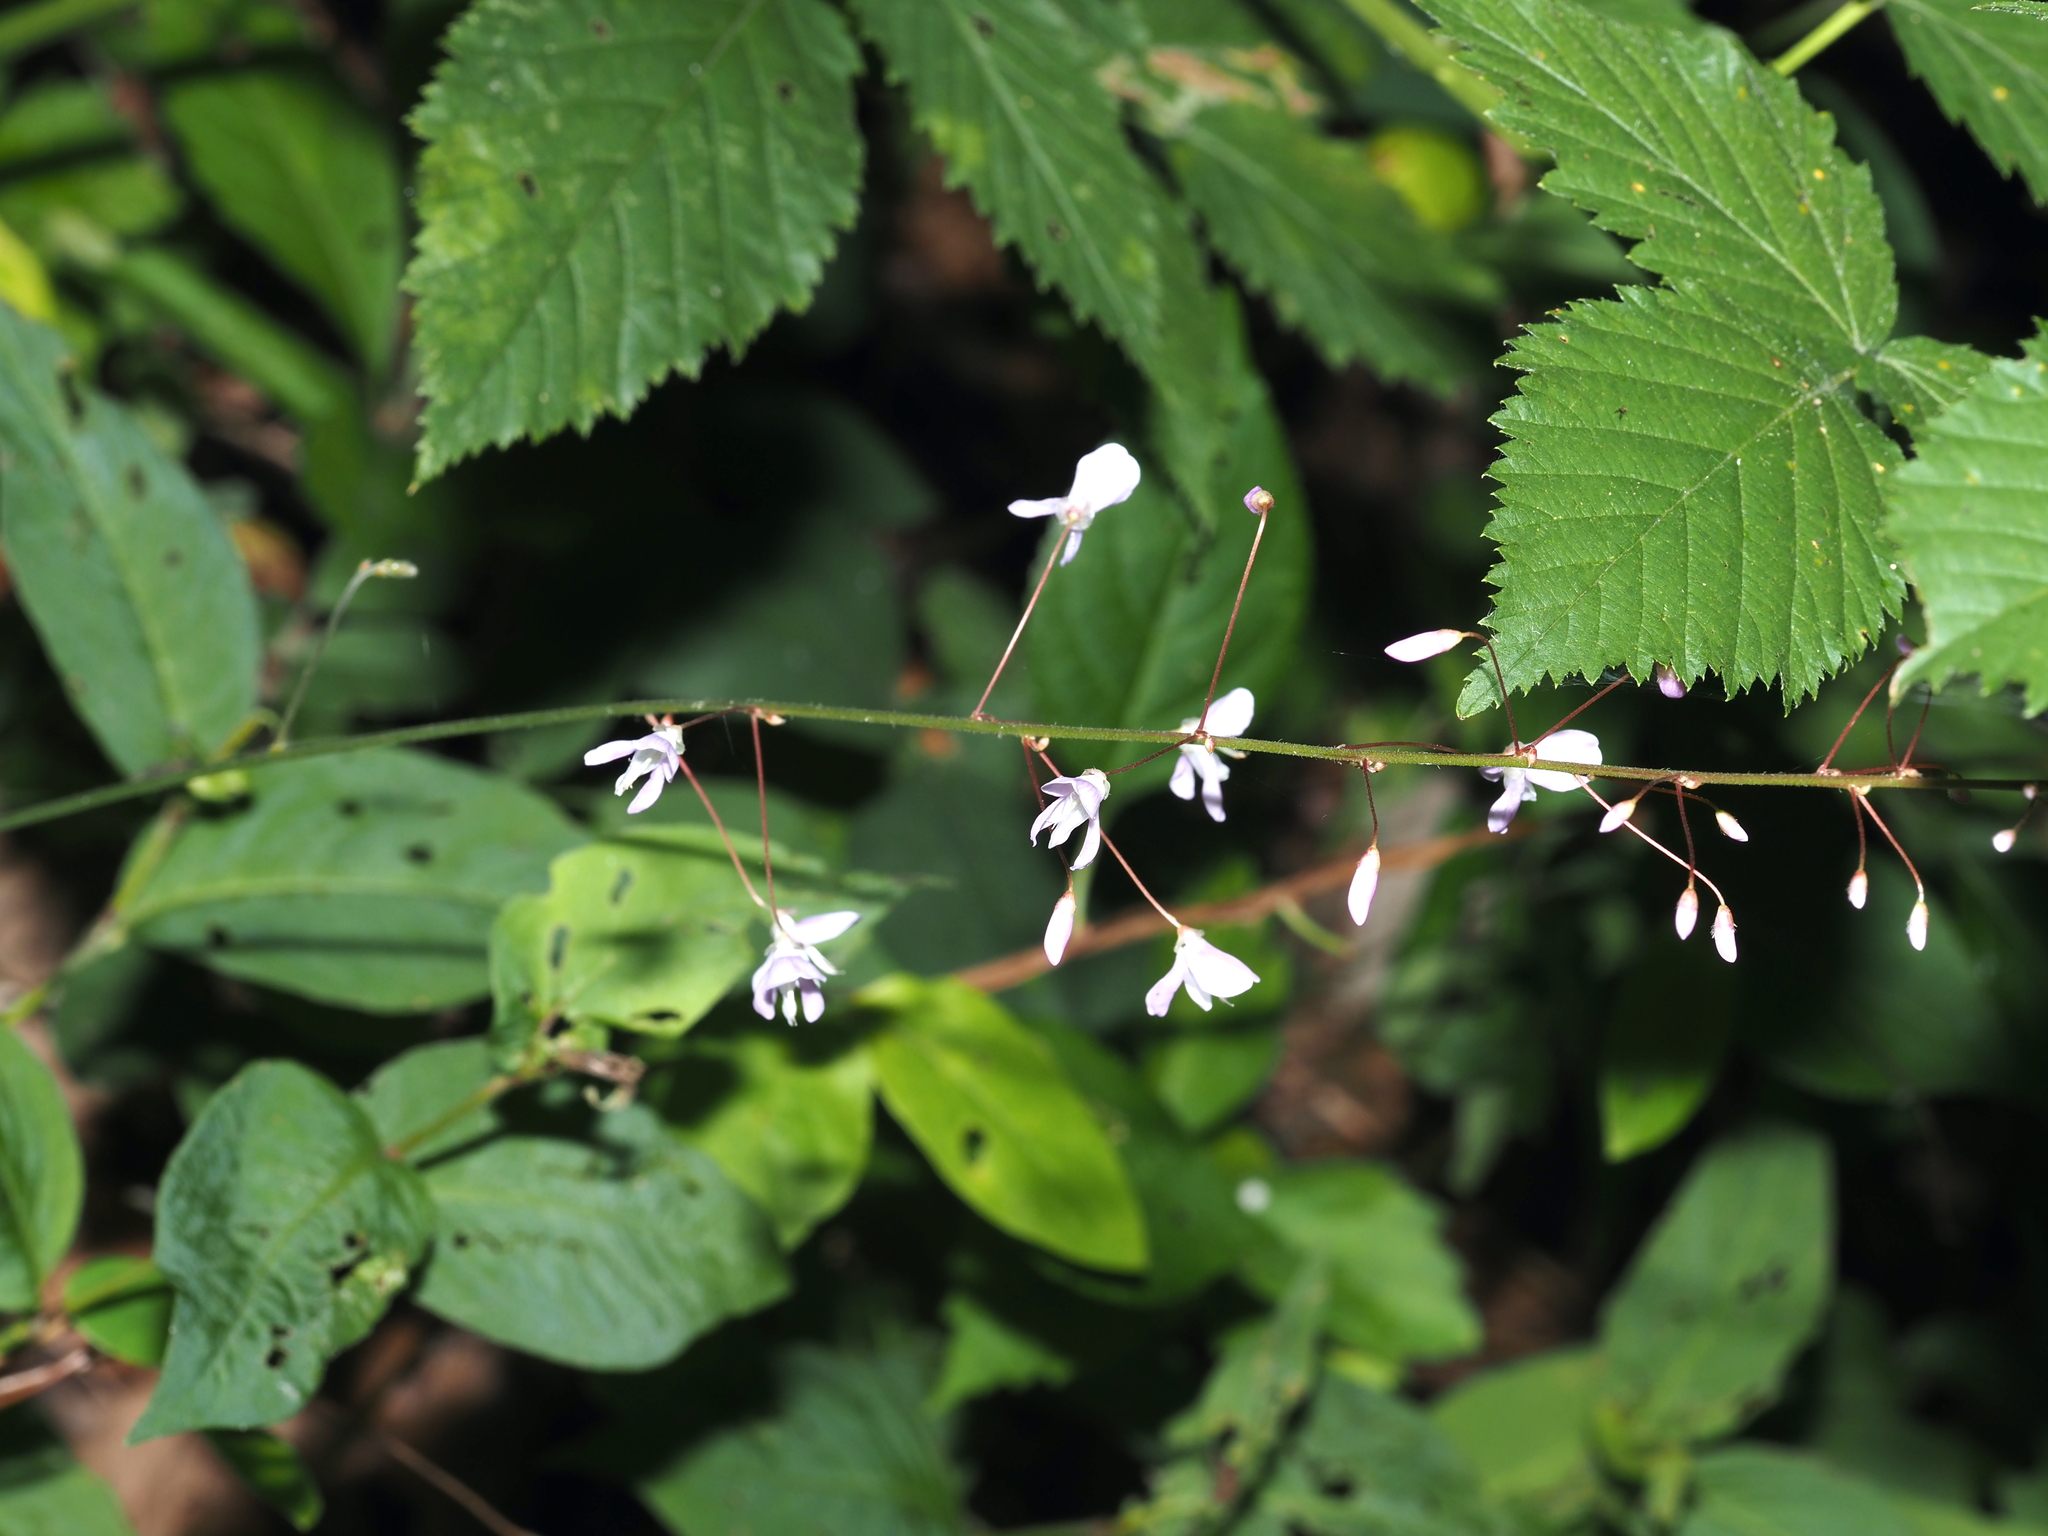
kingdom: Plantae
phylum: Tracheophyta
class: Magnoliopsida
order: Fabales
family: Fabaceae
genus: Hylodesmum
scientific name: Hylodesmum nudiflorum
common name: Bare-stemmed tick-trefoil
